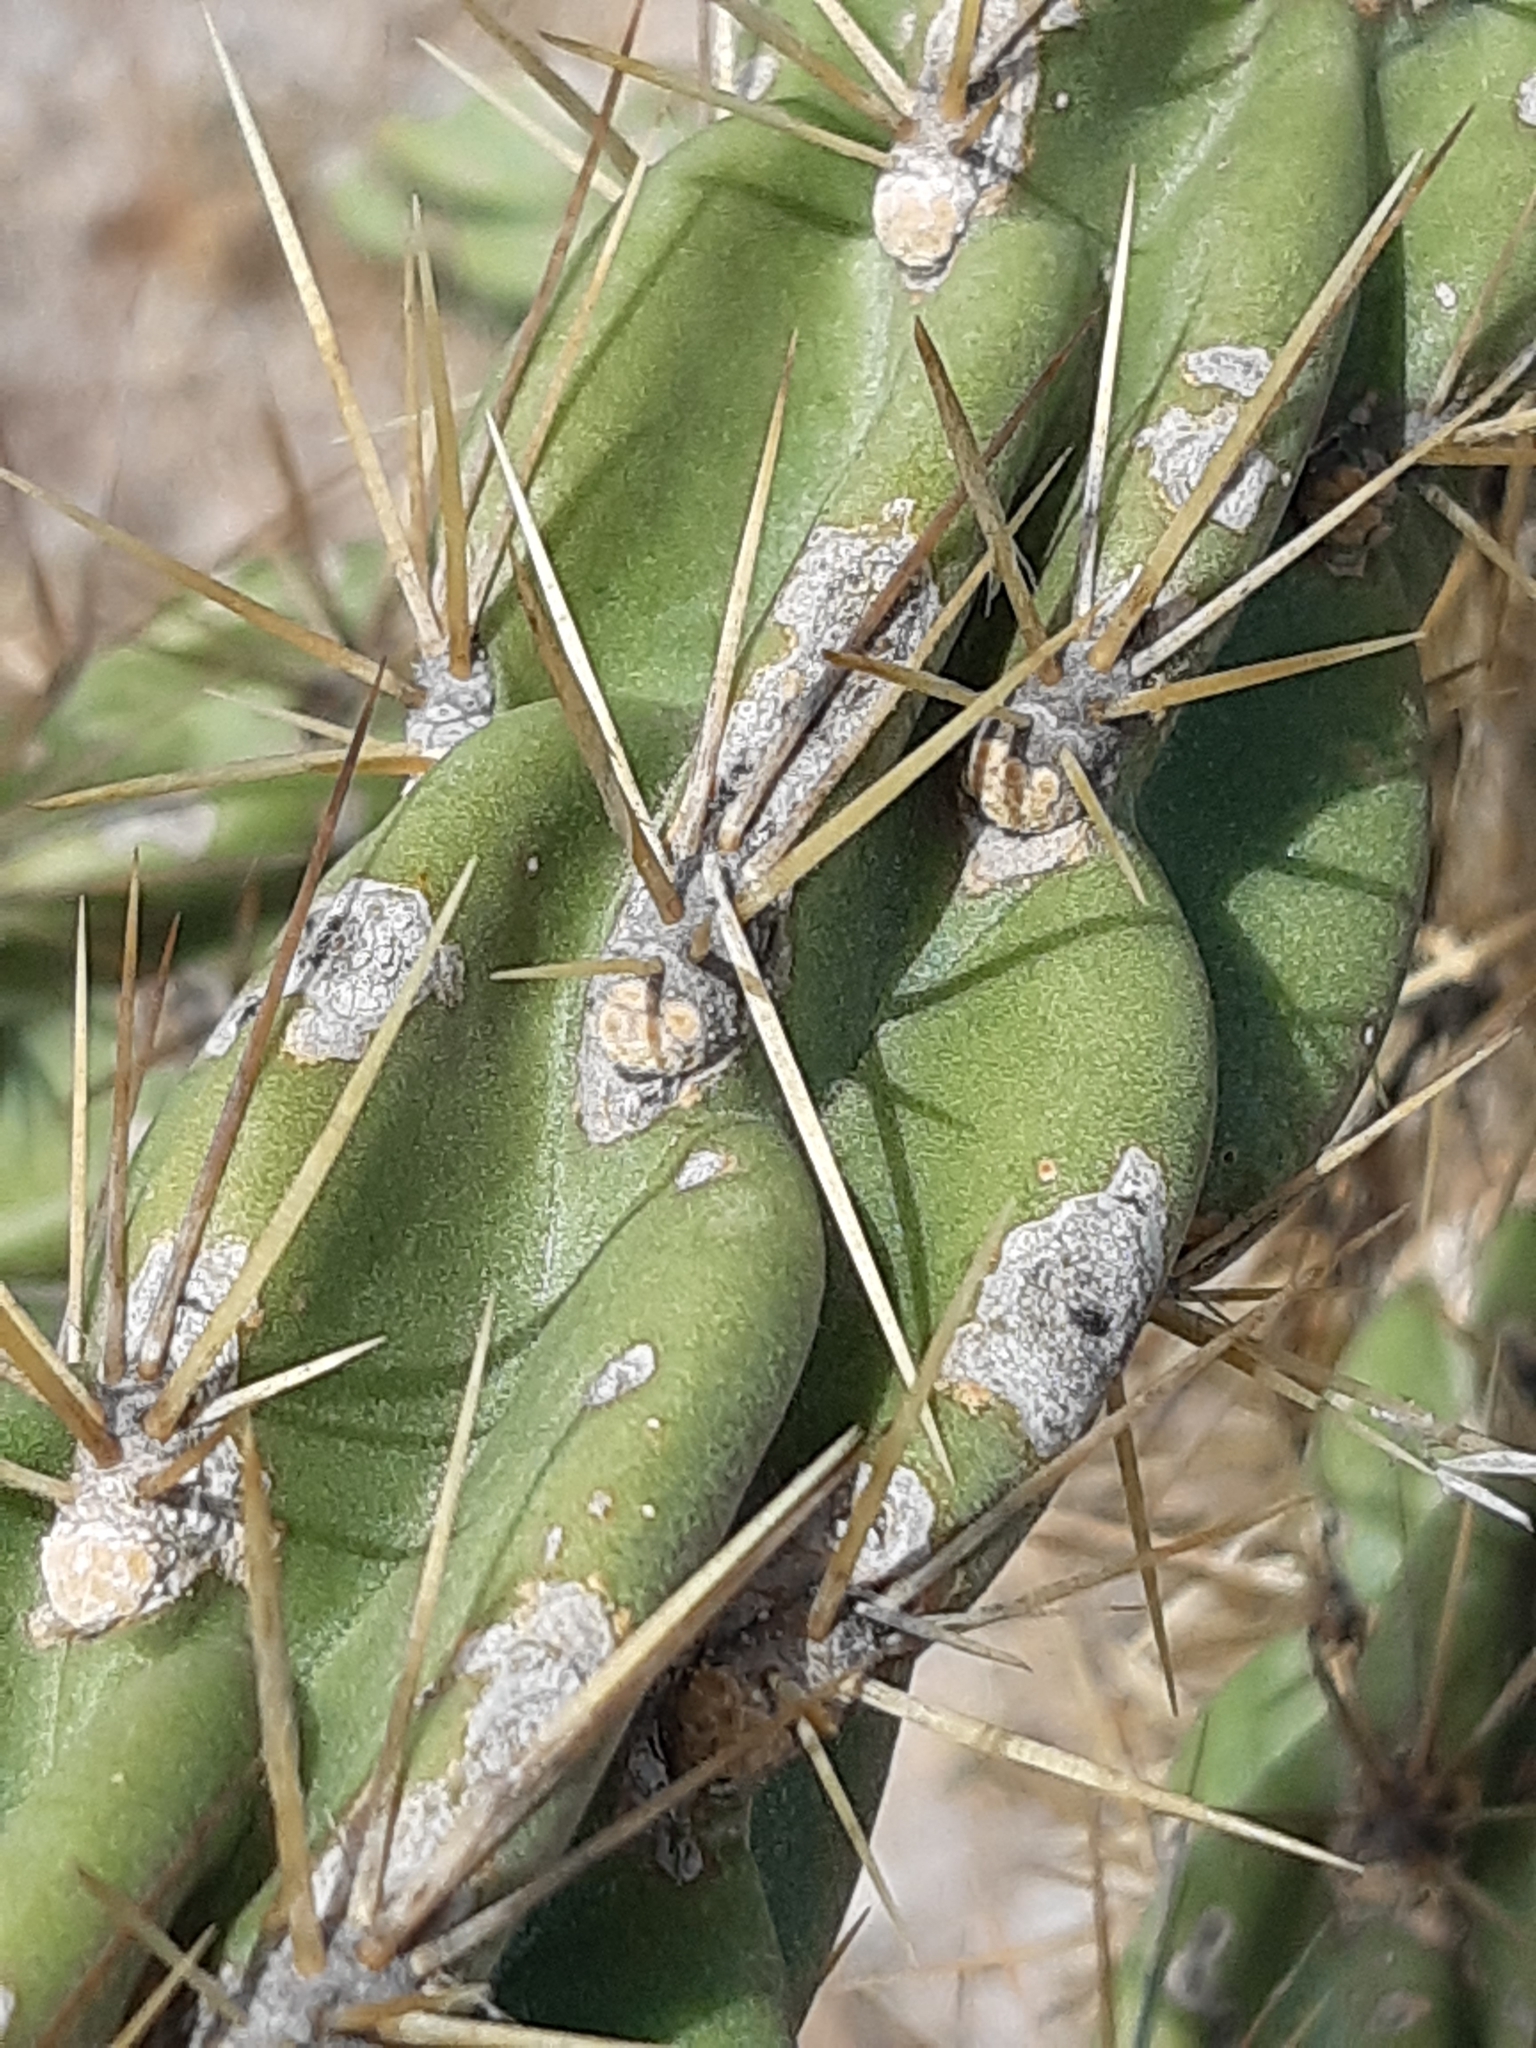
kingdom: Plantae
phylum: Tracheophyta
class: Magnoliopsida
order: Caryophyllales
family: Cactaceae
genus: Cylindropuntia
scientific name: Cylindropuntia imbricata
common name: Candelabrum cactus
